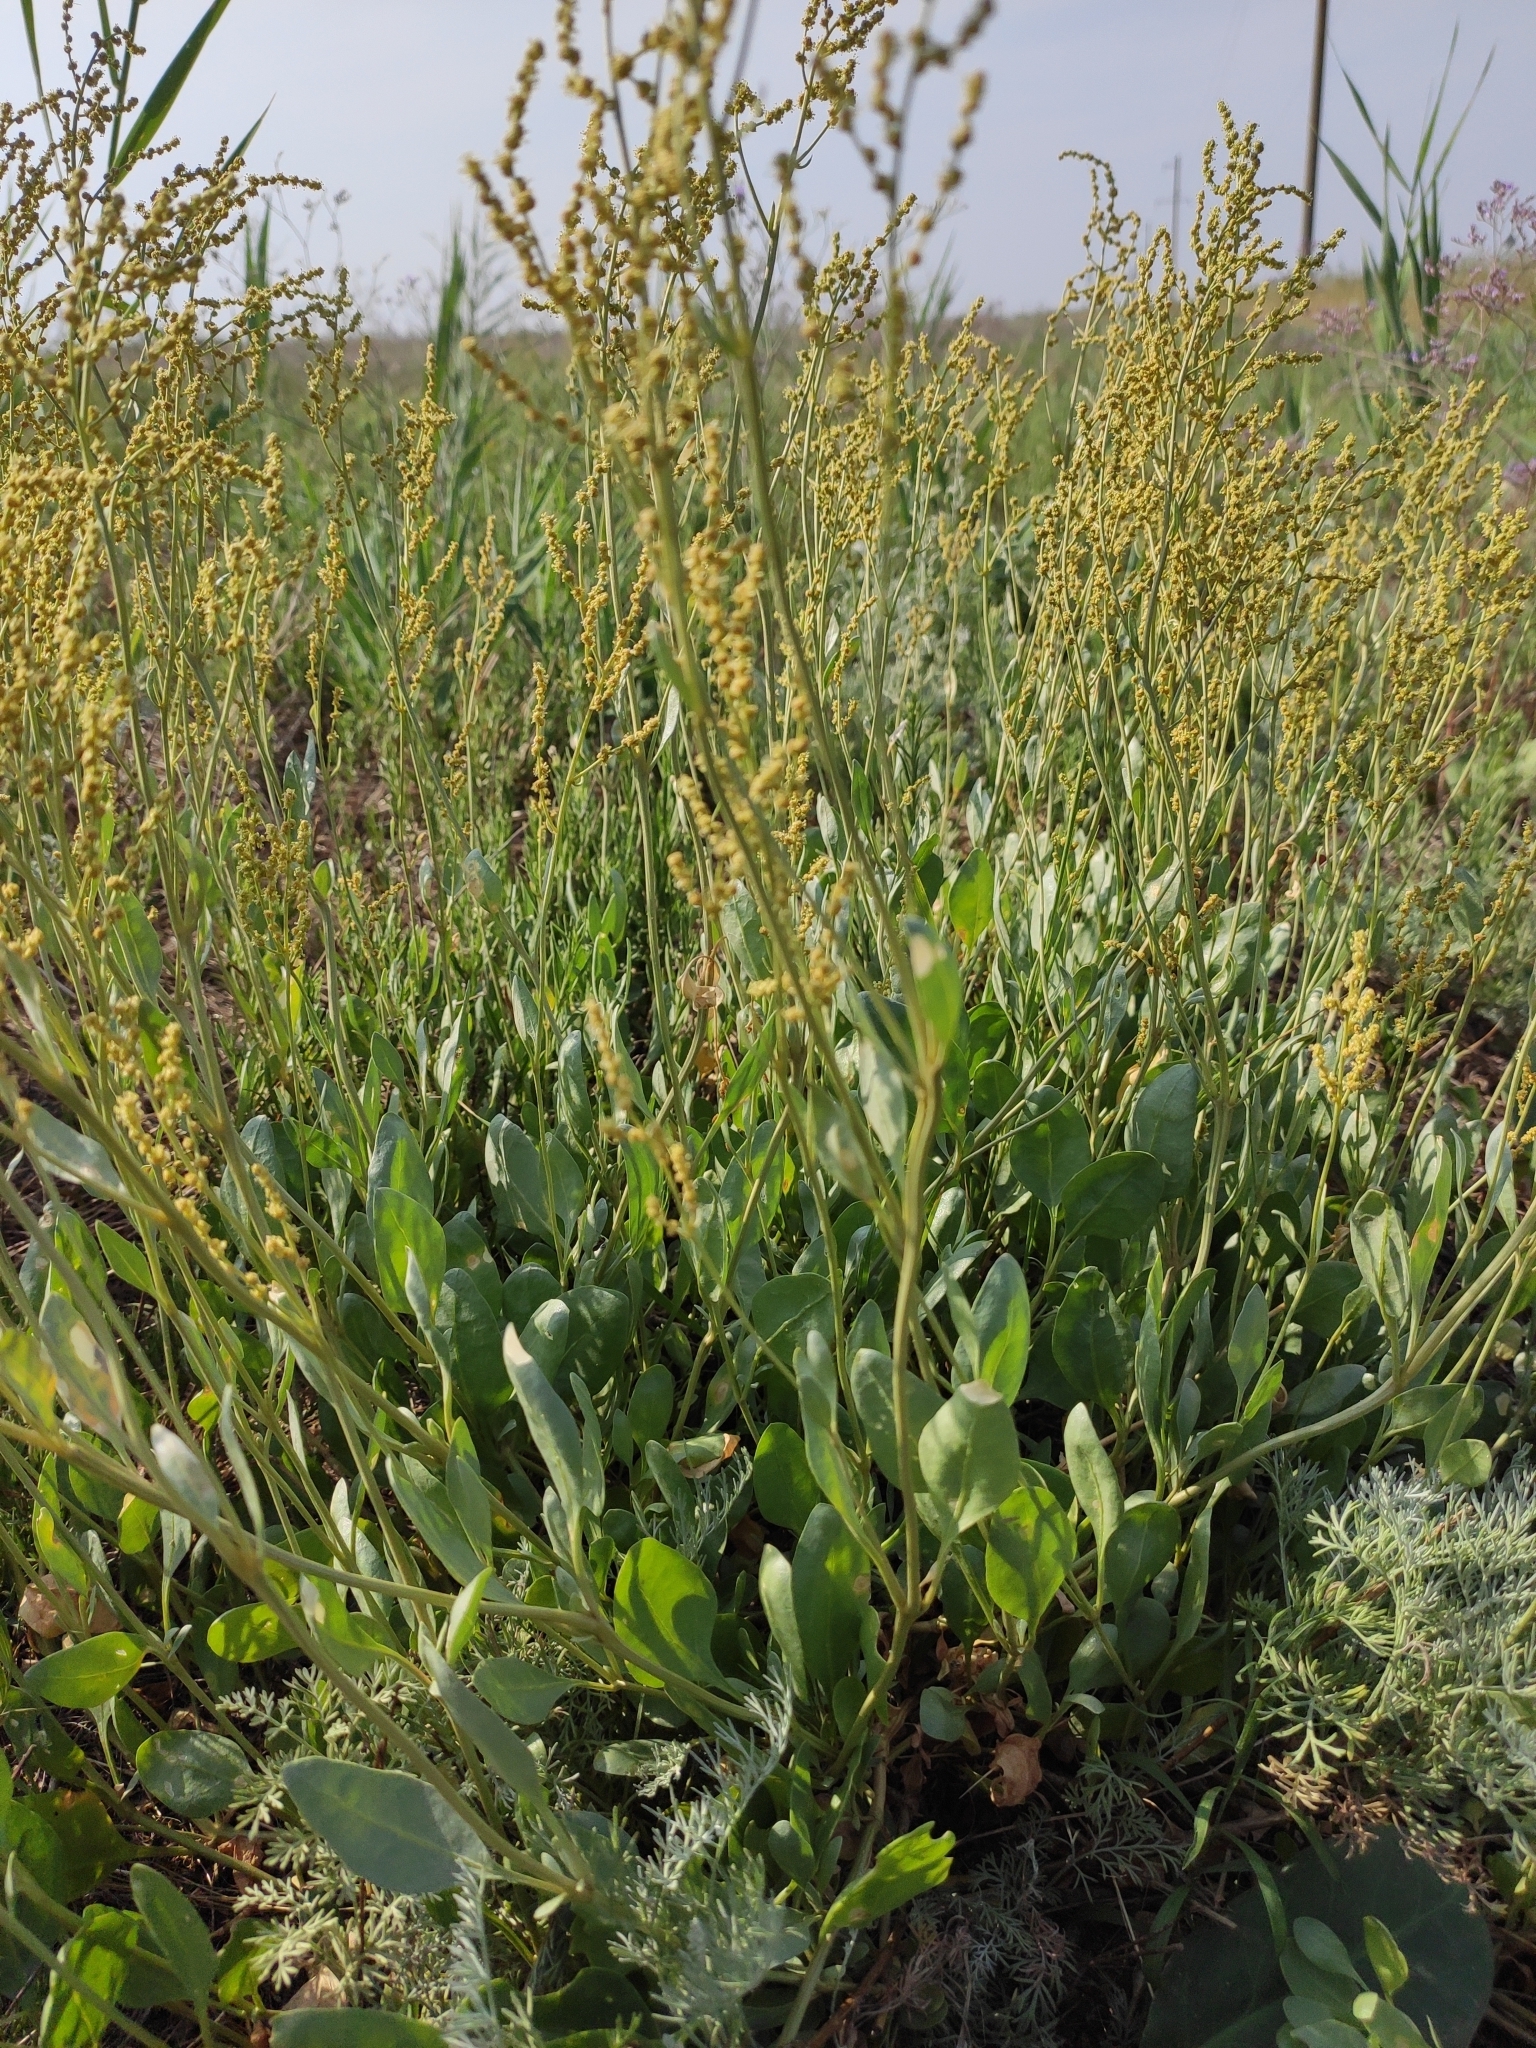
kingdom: Plantae
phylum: Tracheophyta
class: Magnoliopsida
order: Caryophyllales
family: Amaranthaceae
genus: Halimione
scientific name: Halimione verrucifera
